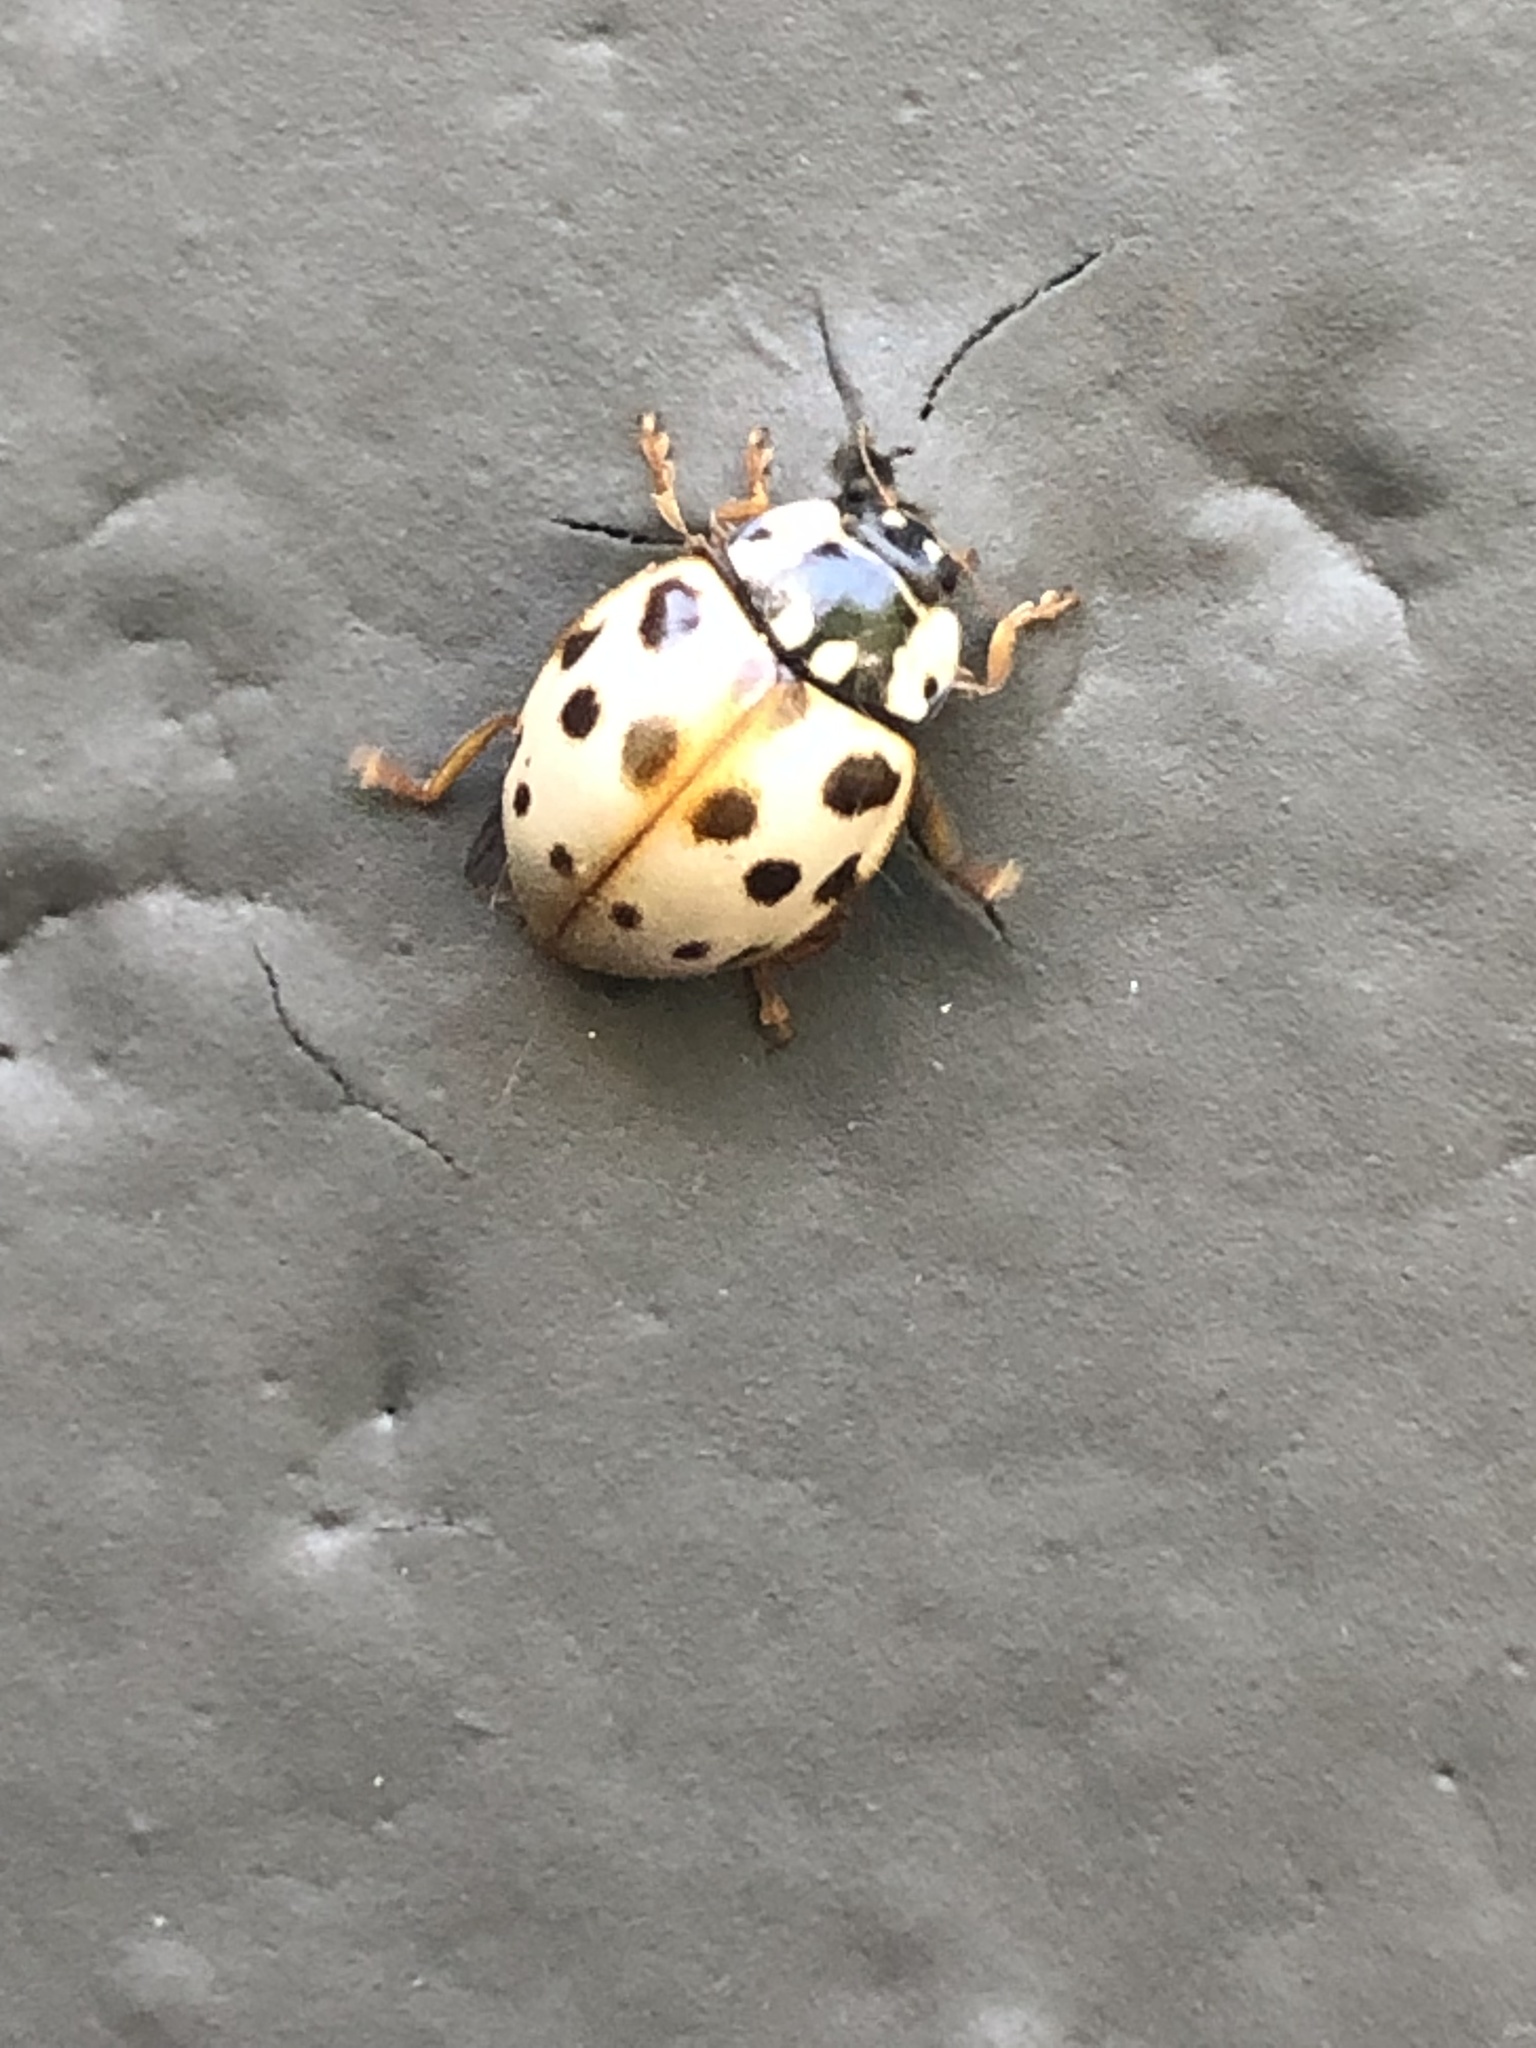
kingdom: Animalia
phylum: Arthropoda
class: Insecta
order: Coleoptera
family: Coccinellidae
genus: Anatis
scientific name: Anatis labiculata
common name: Fifteen-spotted lady beetle
